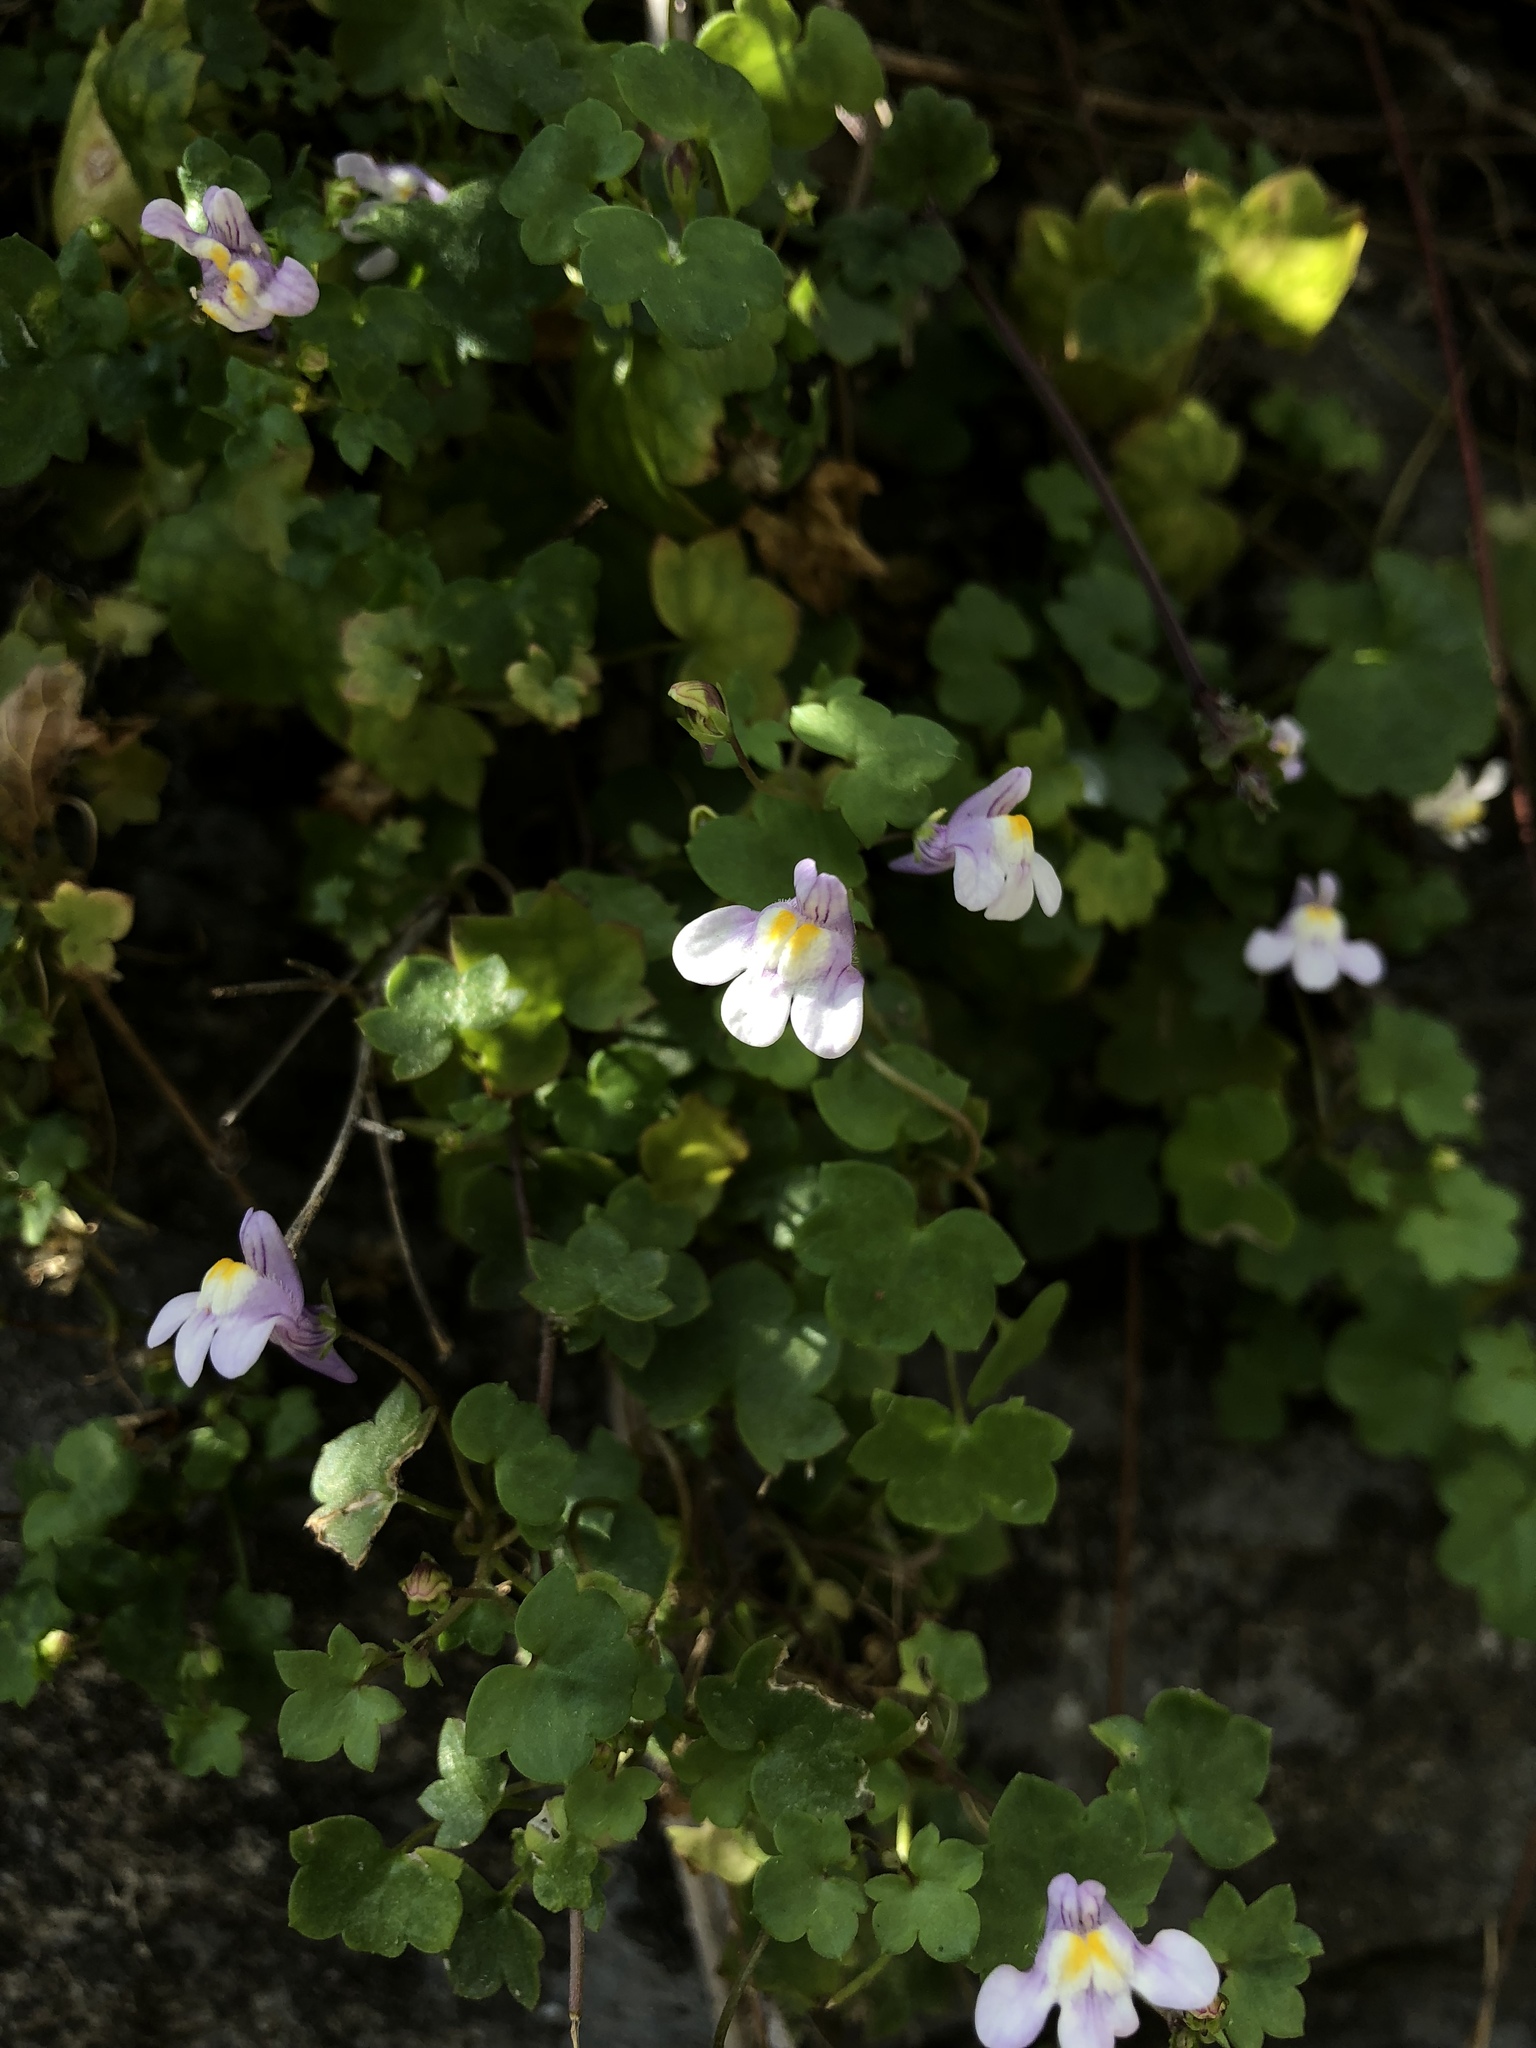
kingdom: Plantae
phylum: Tracheophyta
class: Magnoliopsida
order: Lamiales
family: Plantaginaceae
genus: Cymbalaria
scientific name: Cymbalaria muralis
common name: Ivy-leaved toadflax
